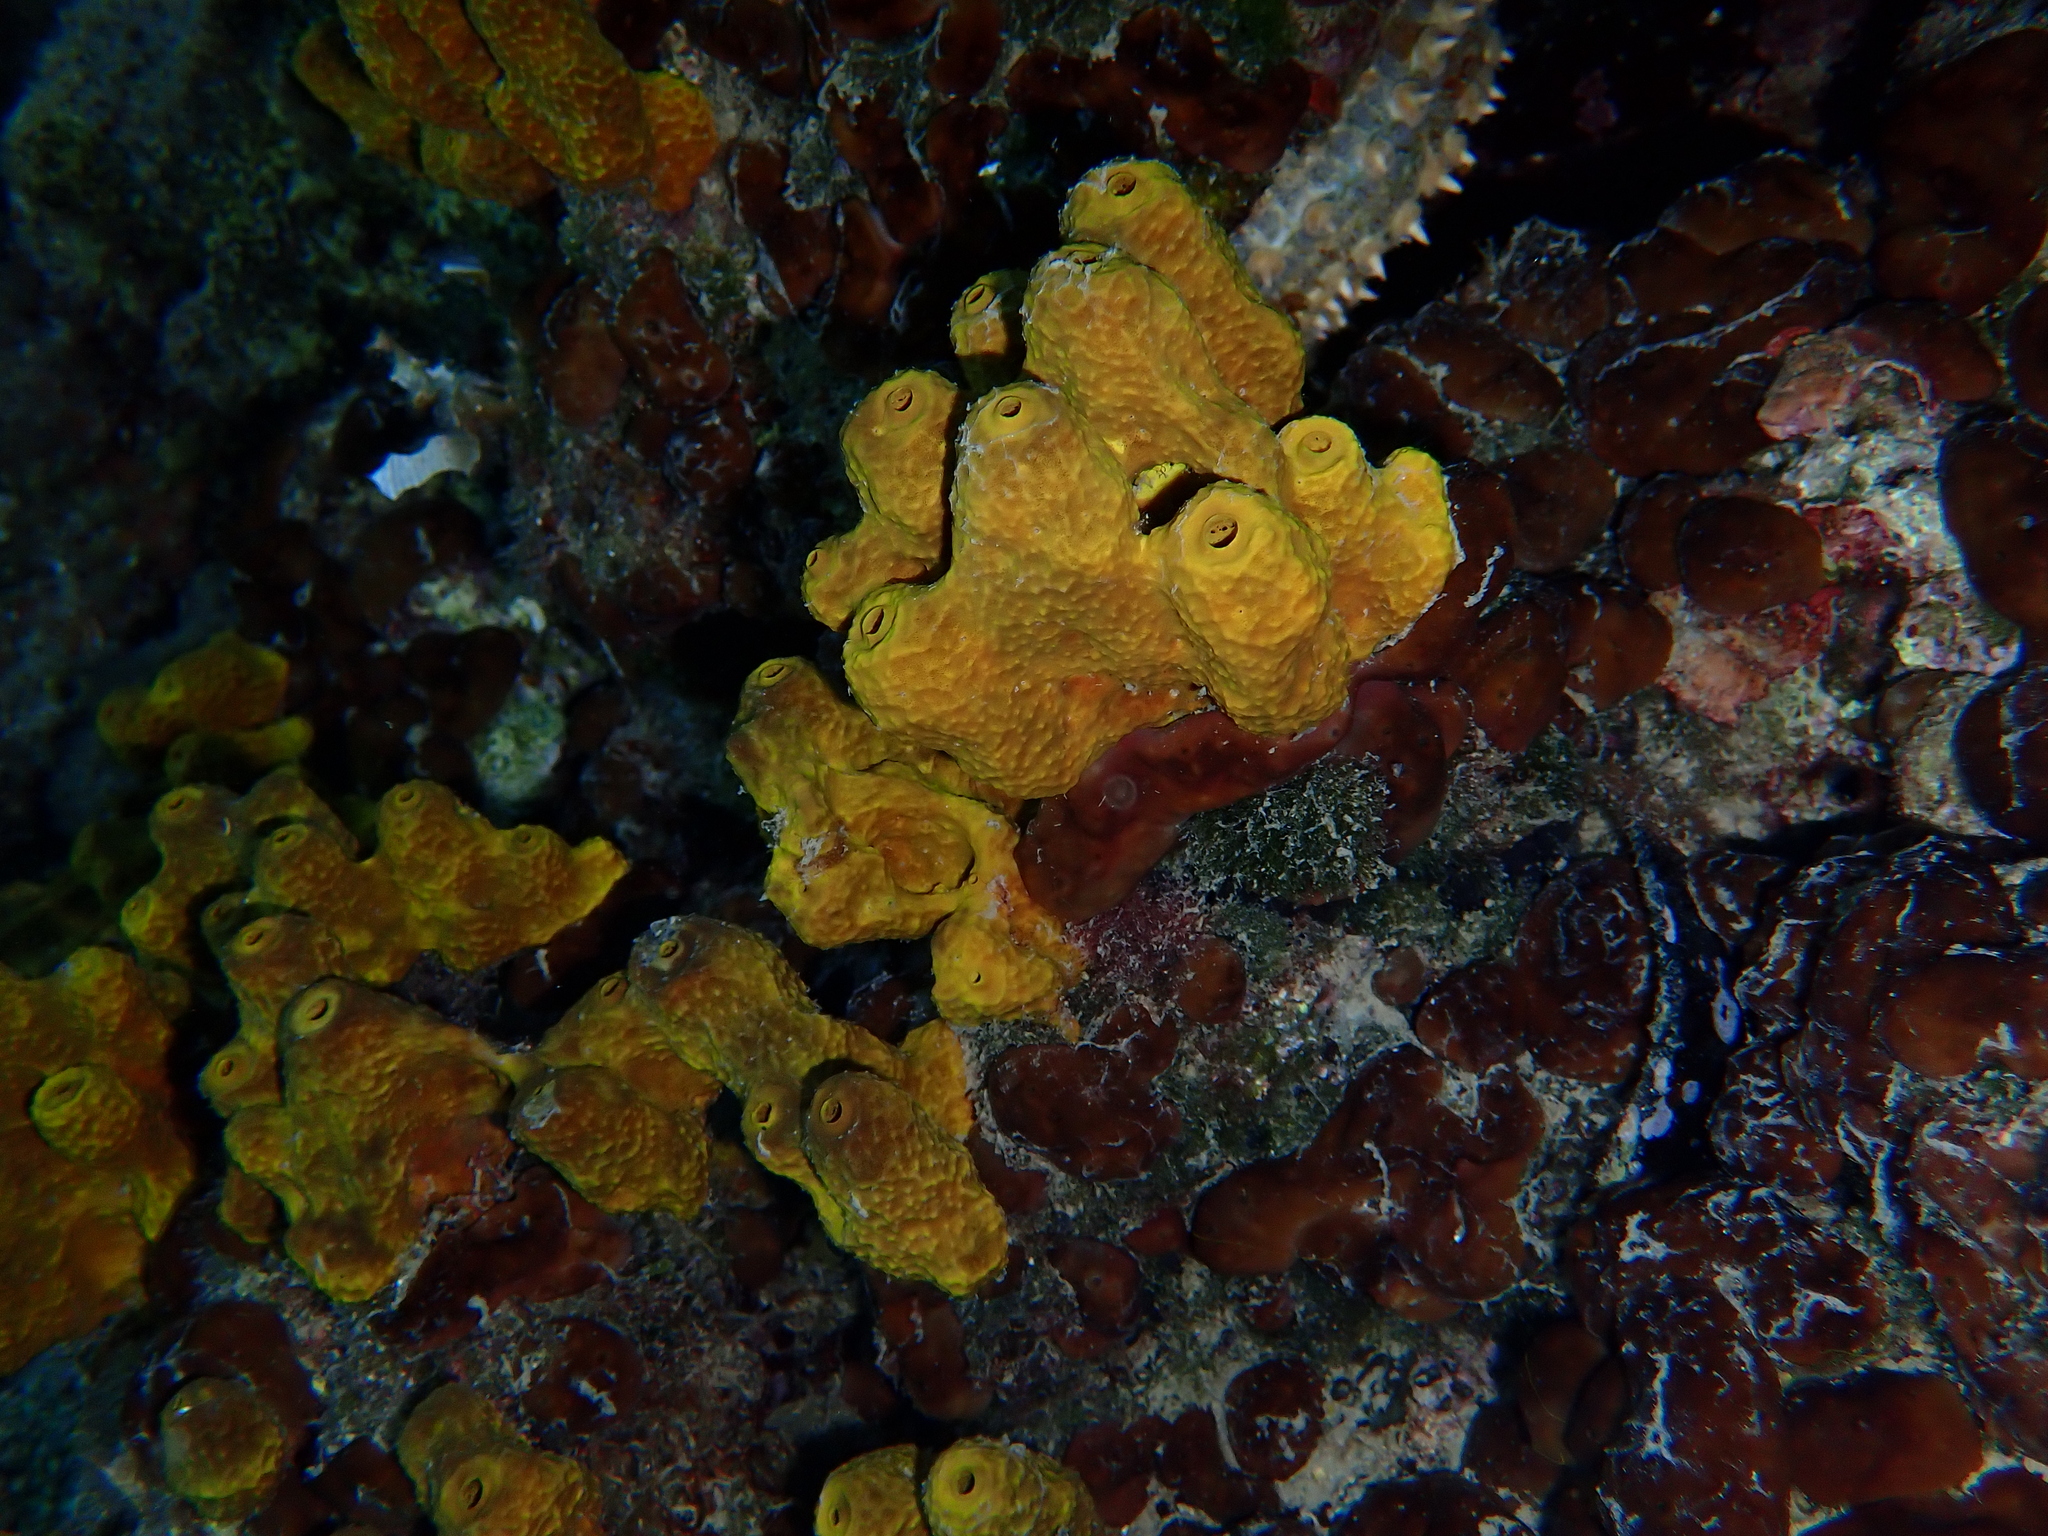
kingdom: Animalia
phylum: Porifera
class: Demospongiae
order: Verongiida
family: Aplysinidae
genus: Aplysina
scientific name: Aplysina aerophoba
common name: Aureate sponge
